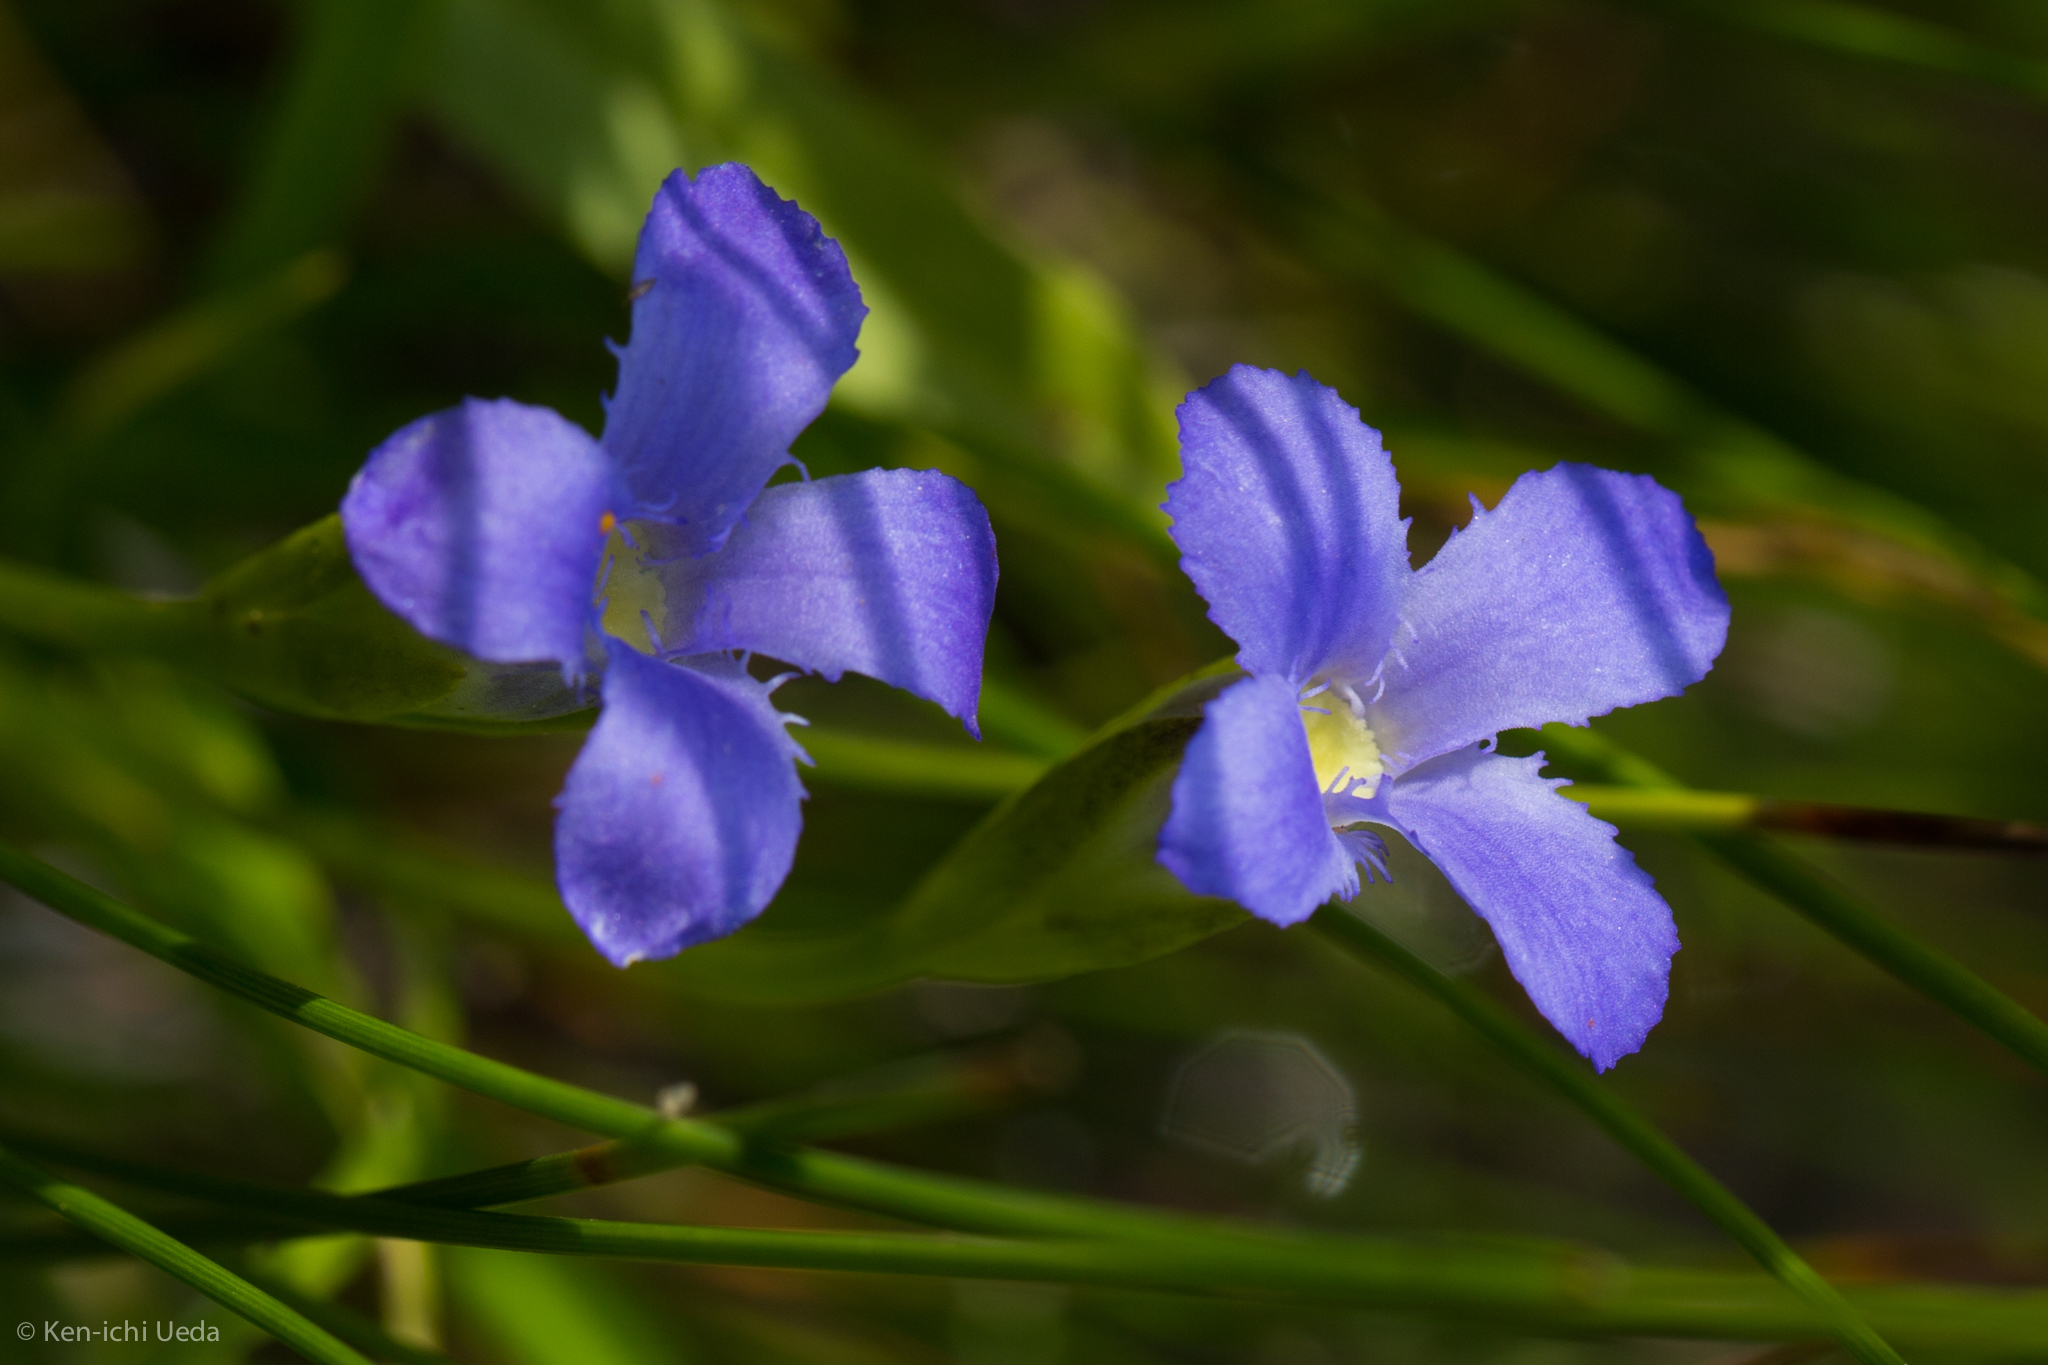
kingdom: Plantae
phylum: Tracheophyta
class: Magnoliopsida
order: Gentianales
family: Gentianaceae
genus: Gentianopsis
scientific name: Gentianopsis simplex
